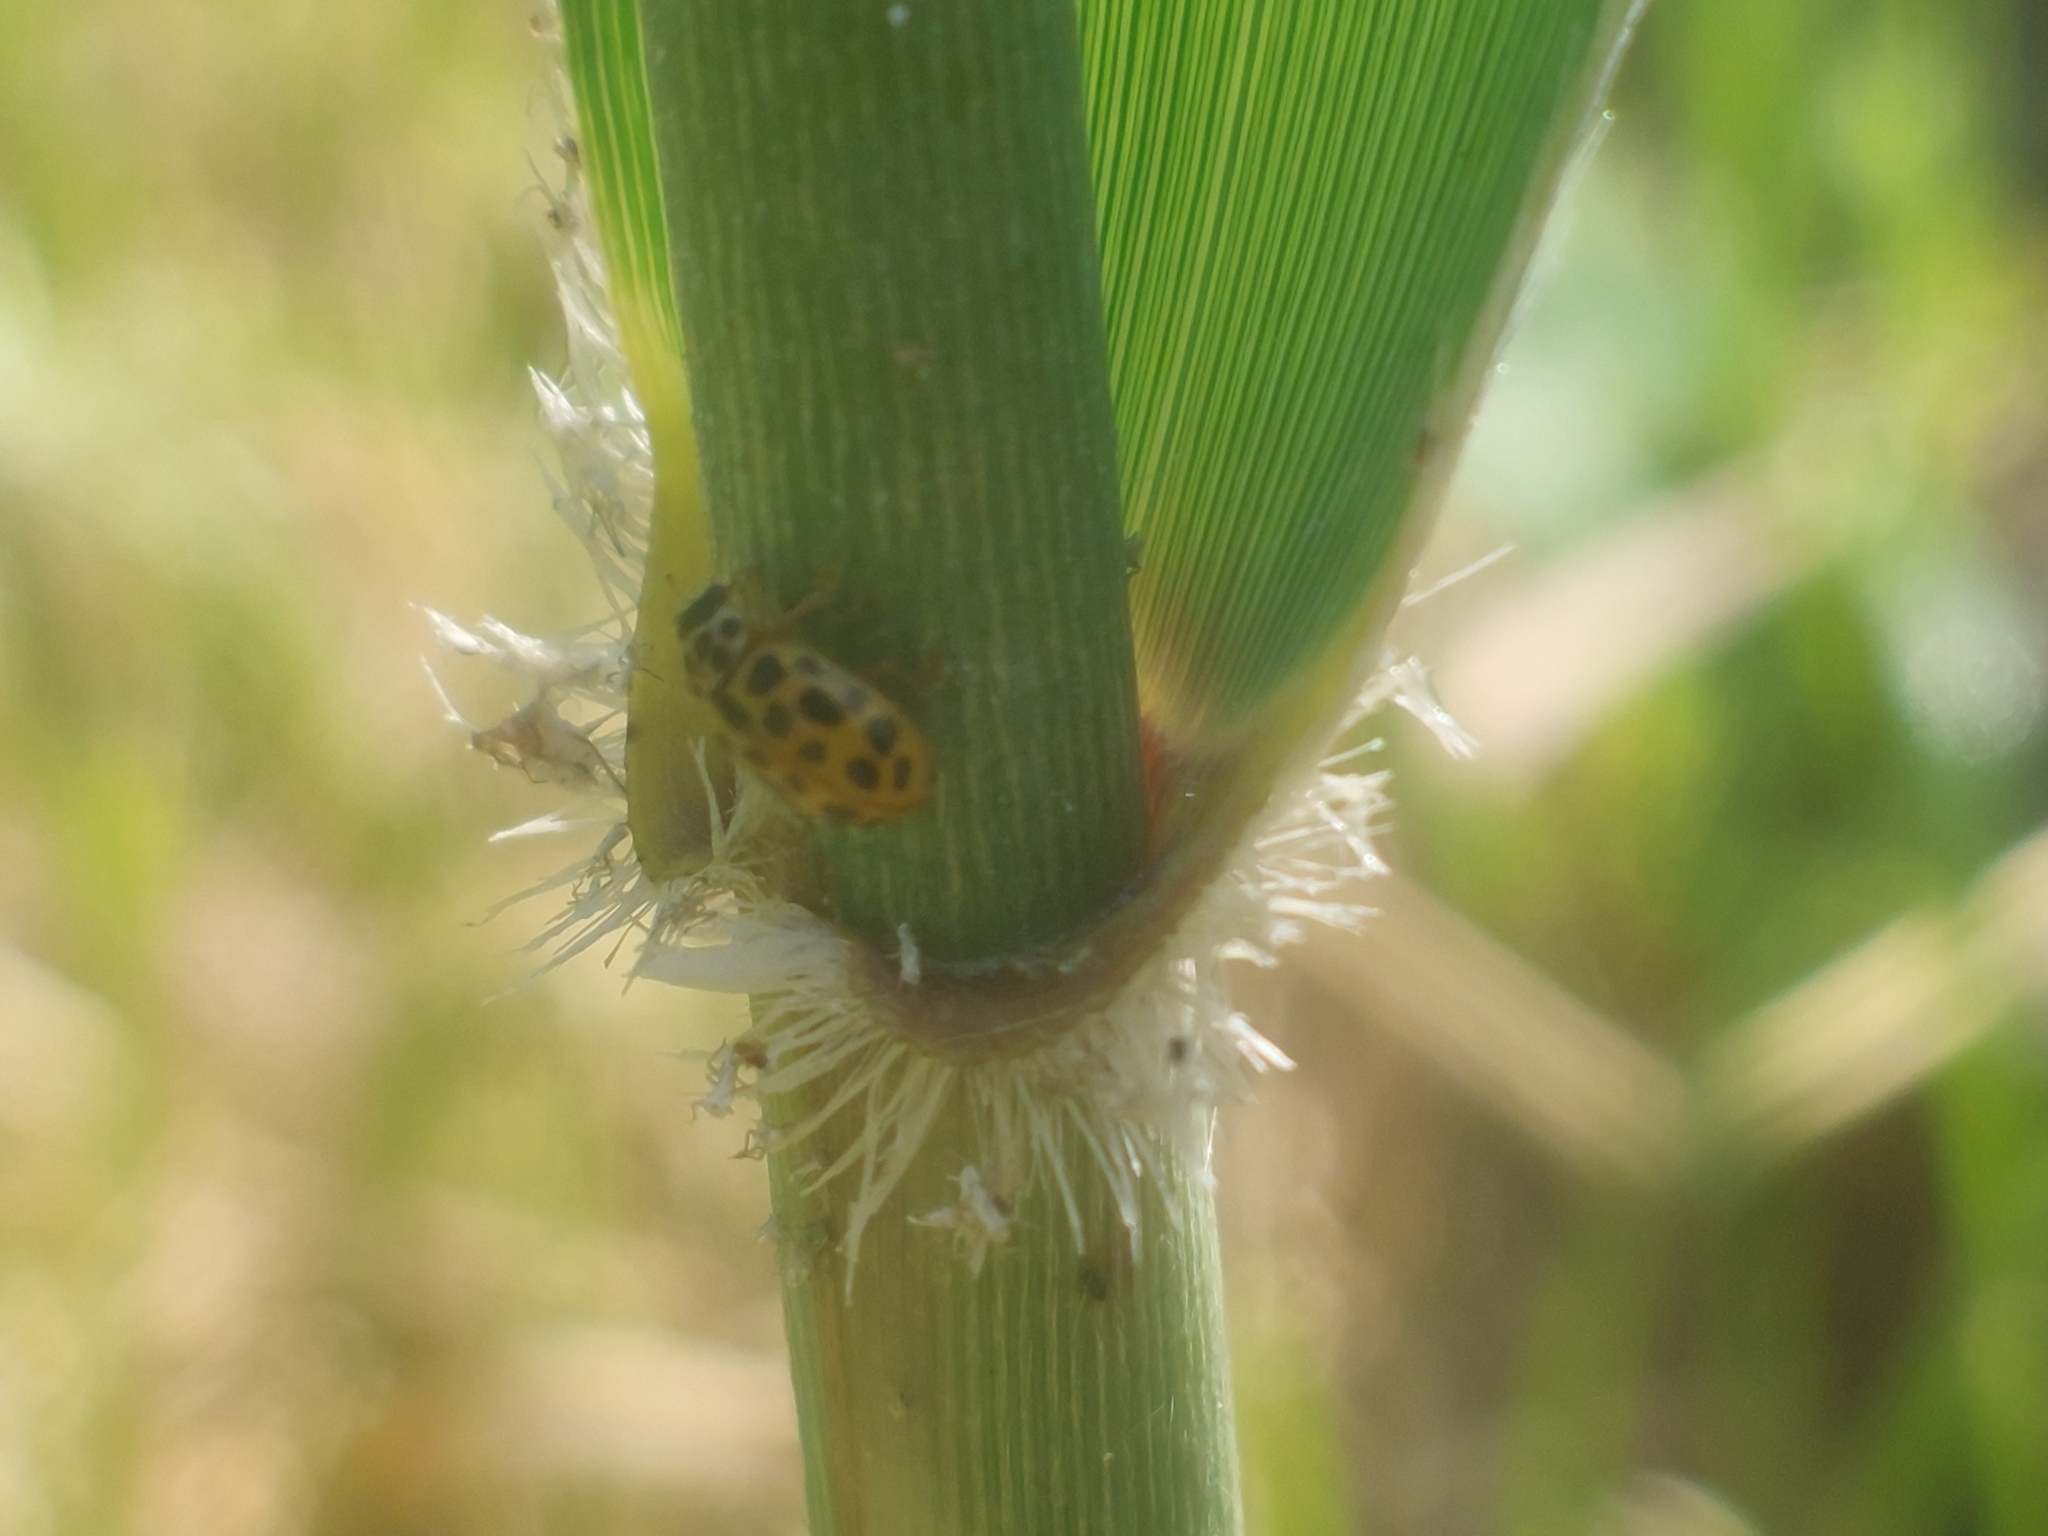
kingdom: Animalia
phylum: Arthropoda
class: Insecta
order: Coleoptera
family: Coccinellidae
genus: Anisosticta
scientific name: Anisosticta novemdecimpunctata
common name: Water ladybird
